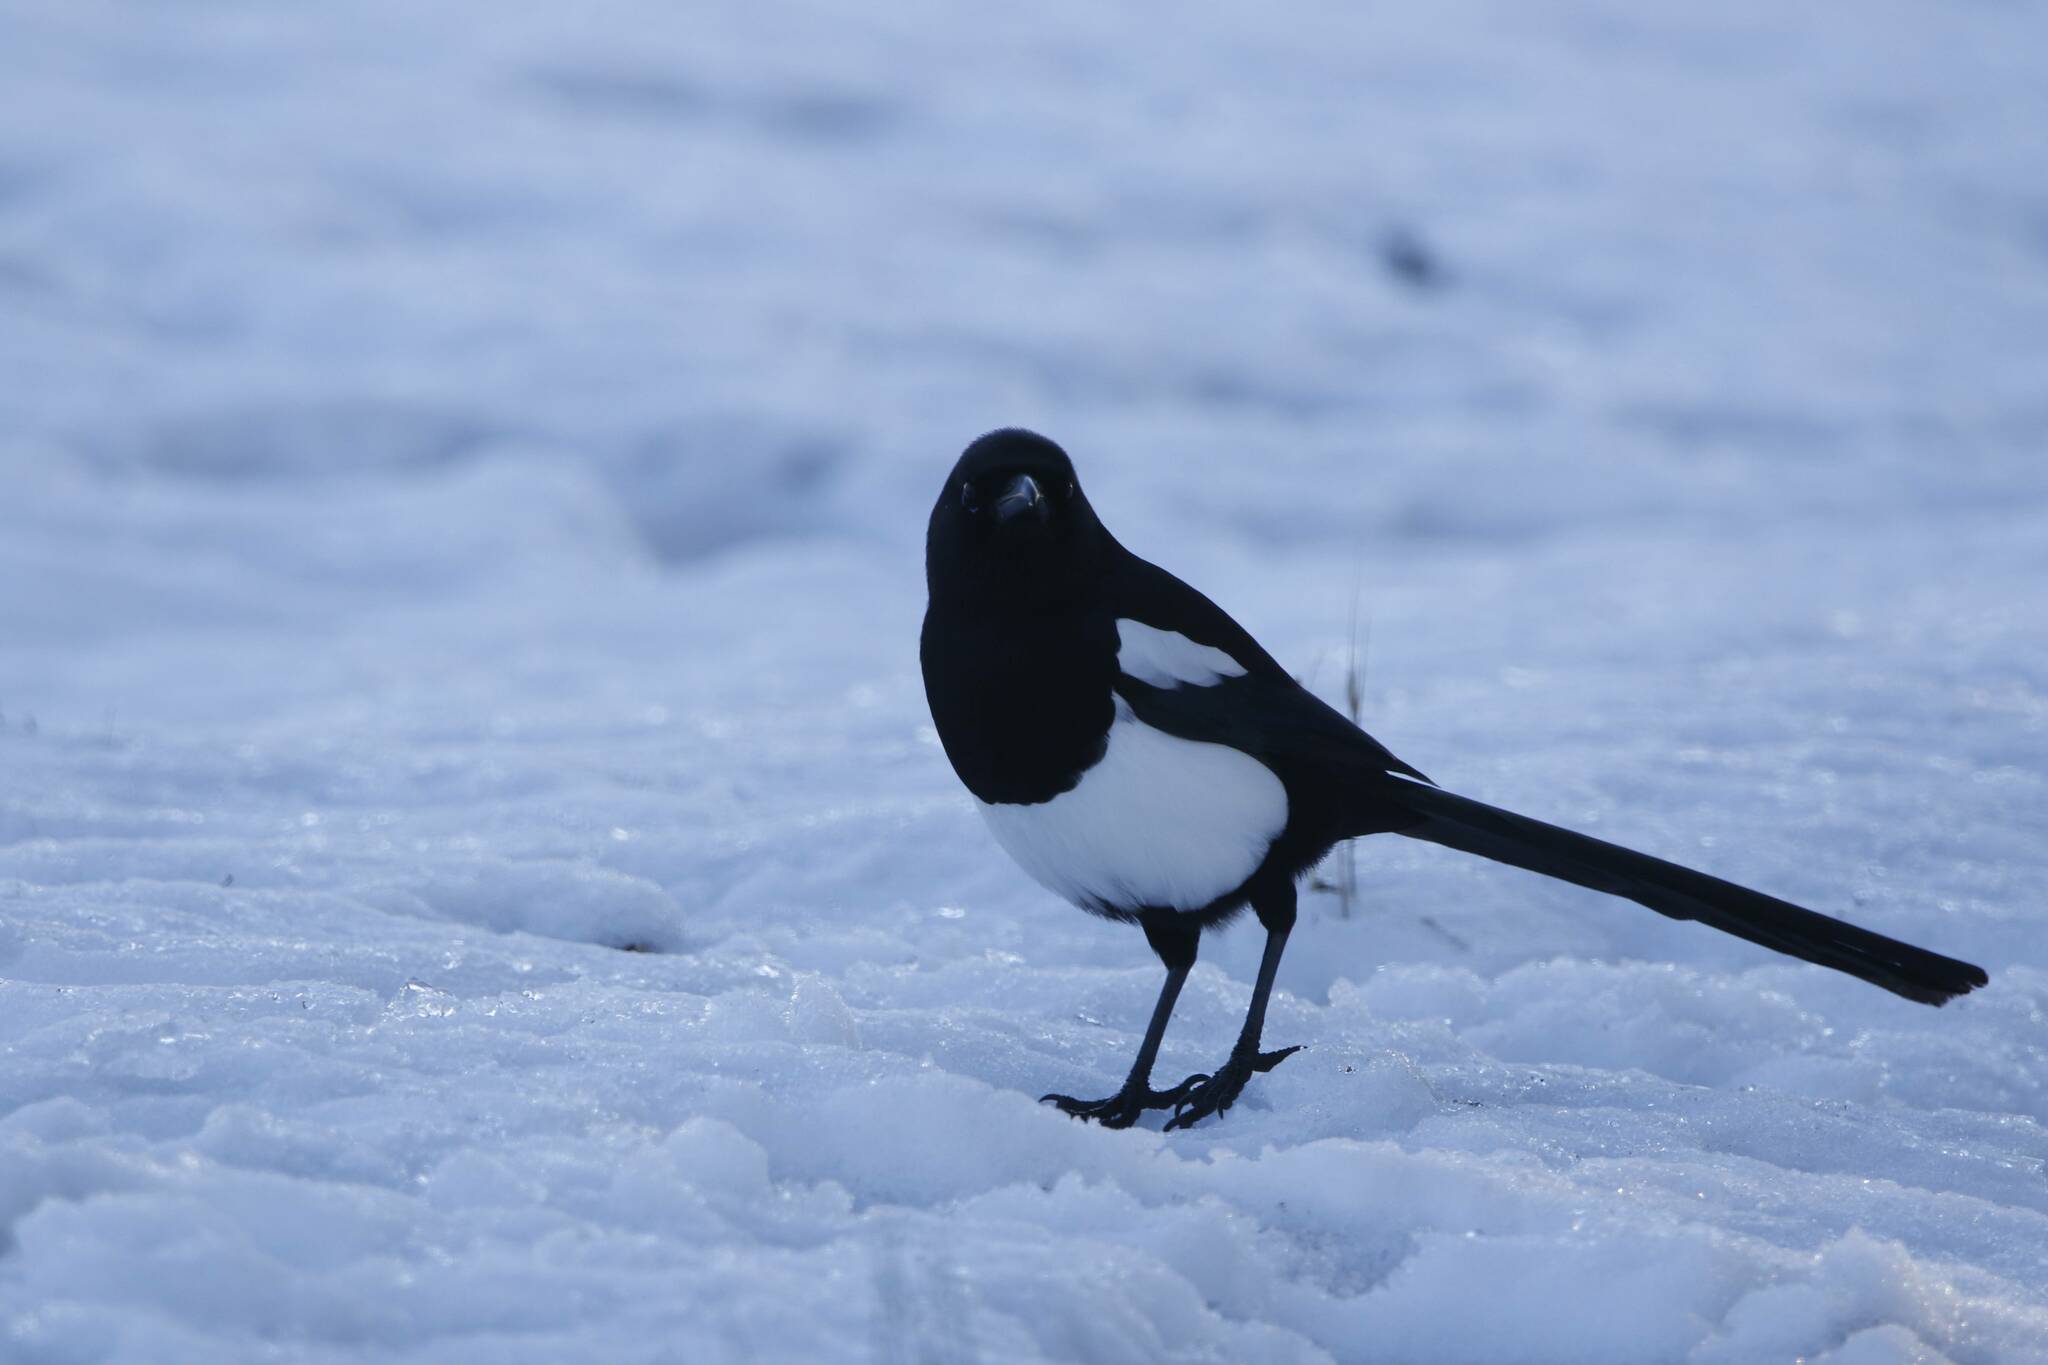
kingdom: Animalia
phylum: Chordata
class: Aves
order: Passeriformes
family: Corvidae
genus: Pica
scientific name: Pica mauritanica
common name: Maghreb magpie
